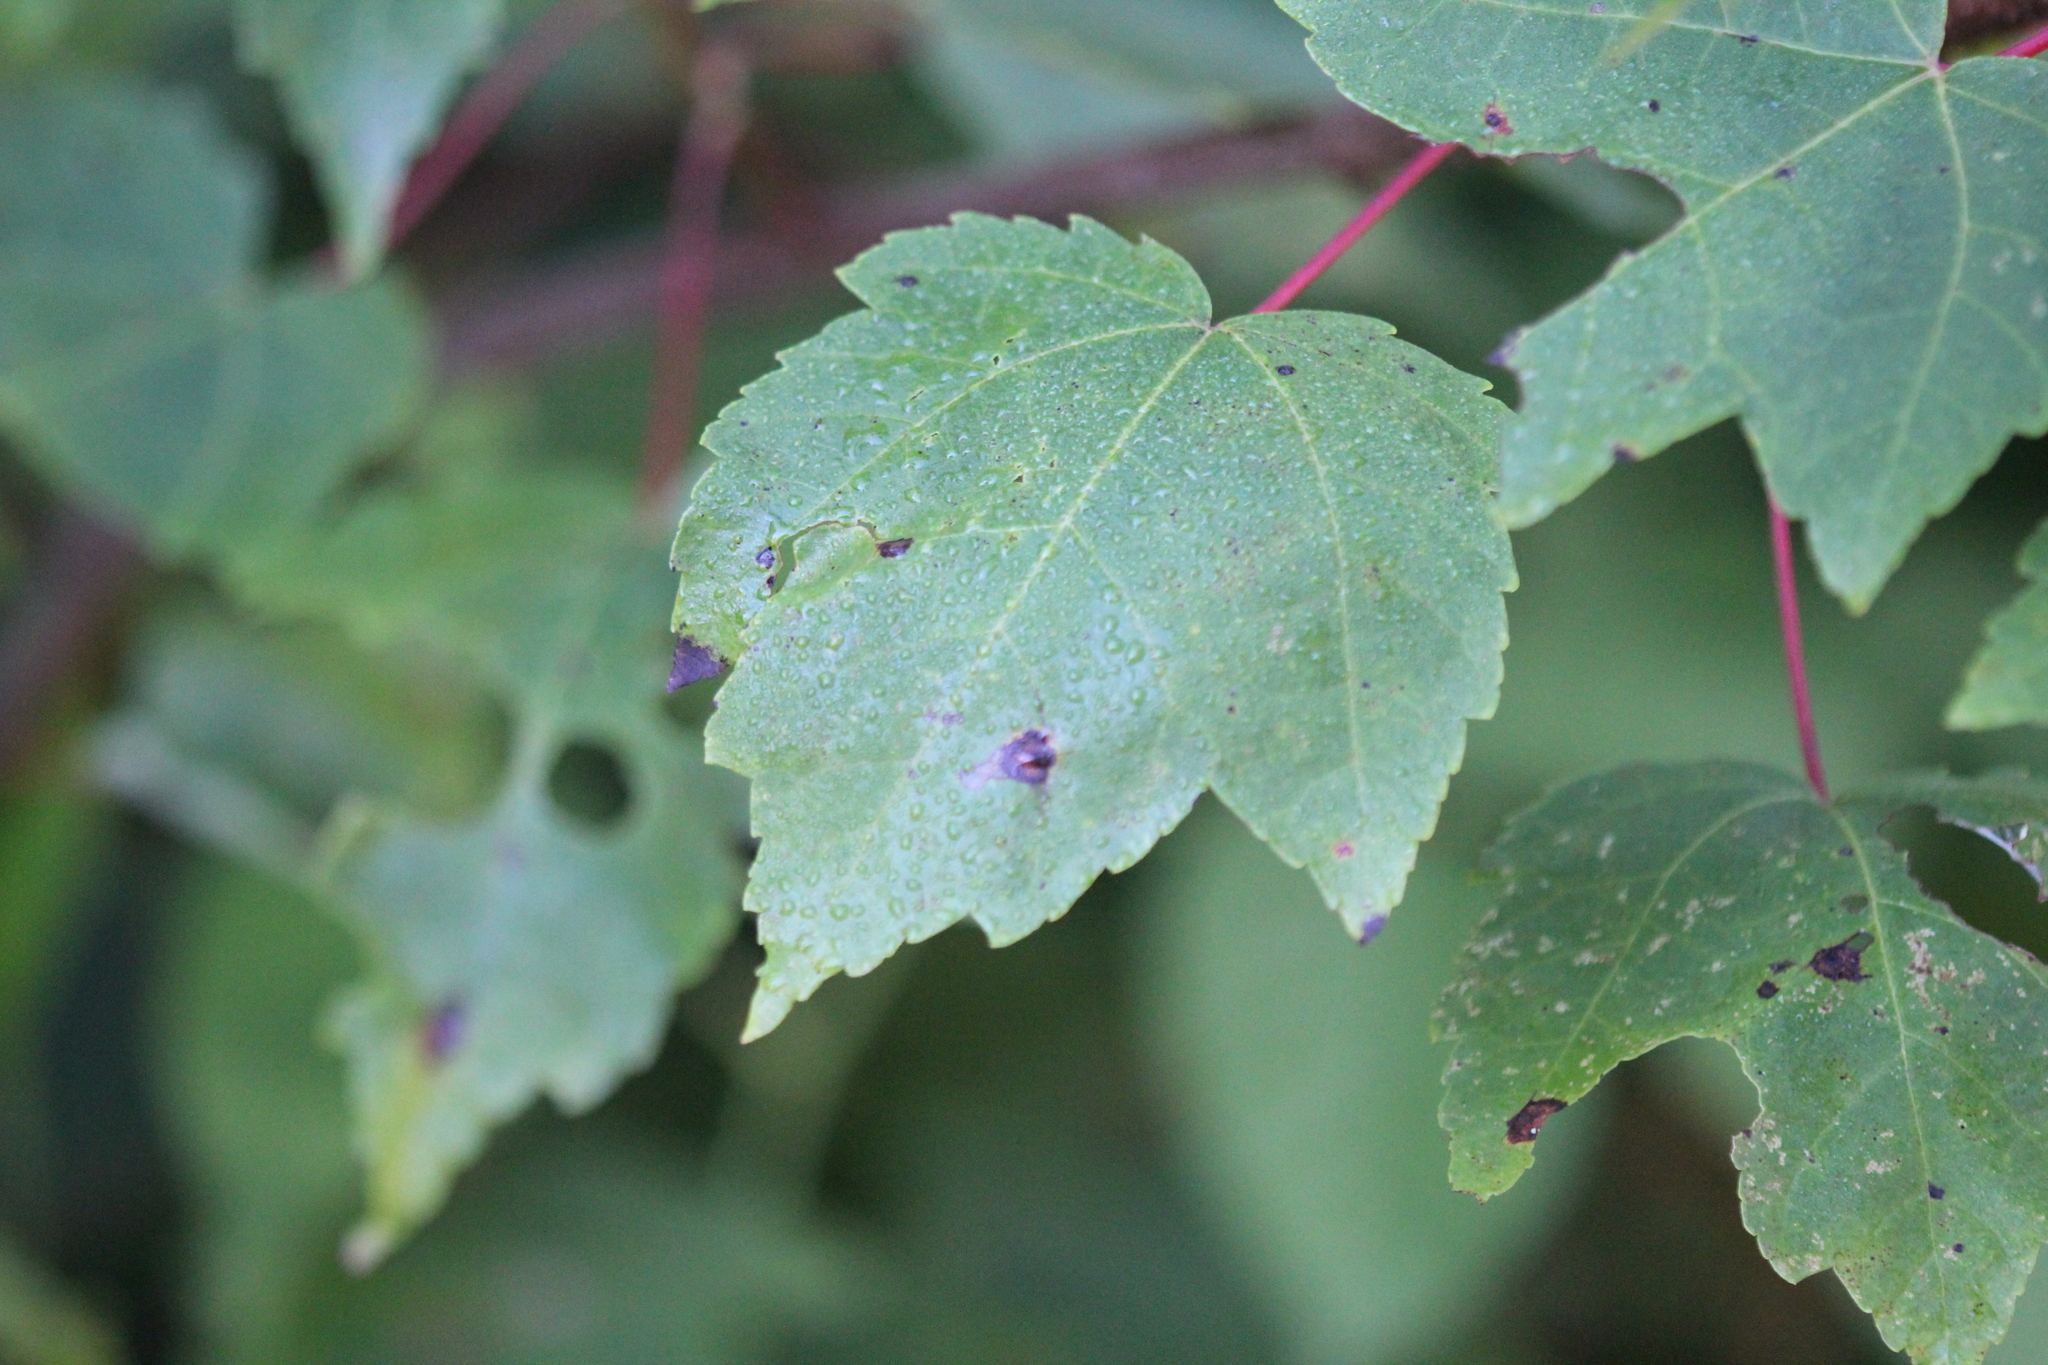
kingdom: Plantae
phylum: Tracheophyta
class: Magnoliopsida
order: Sapindales
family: Sapindaceae
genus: Acer
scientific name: Acer rubrum
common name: Red maple
